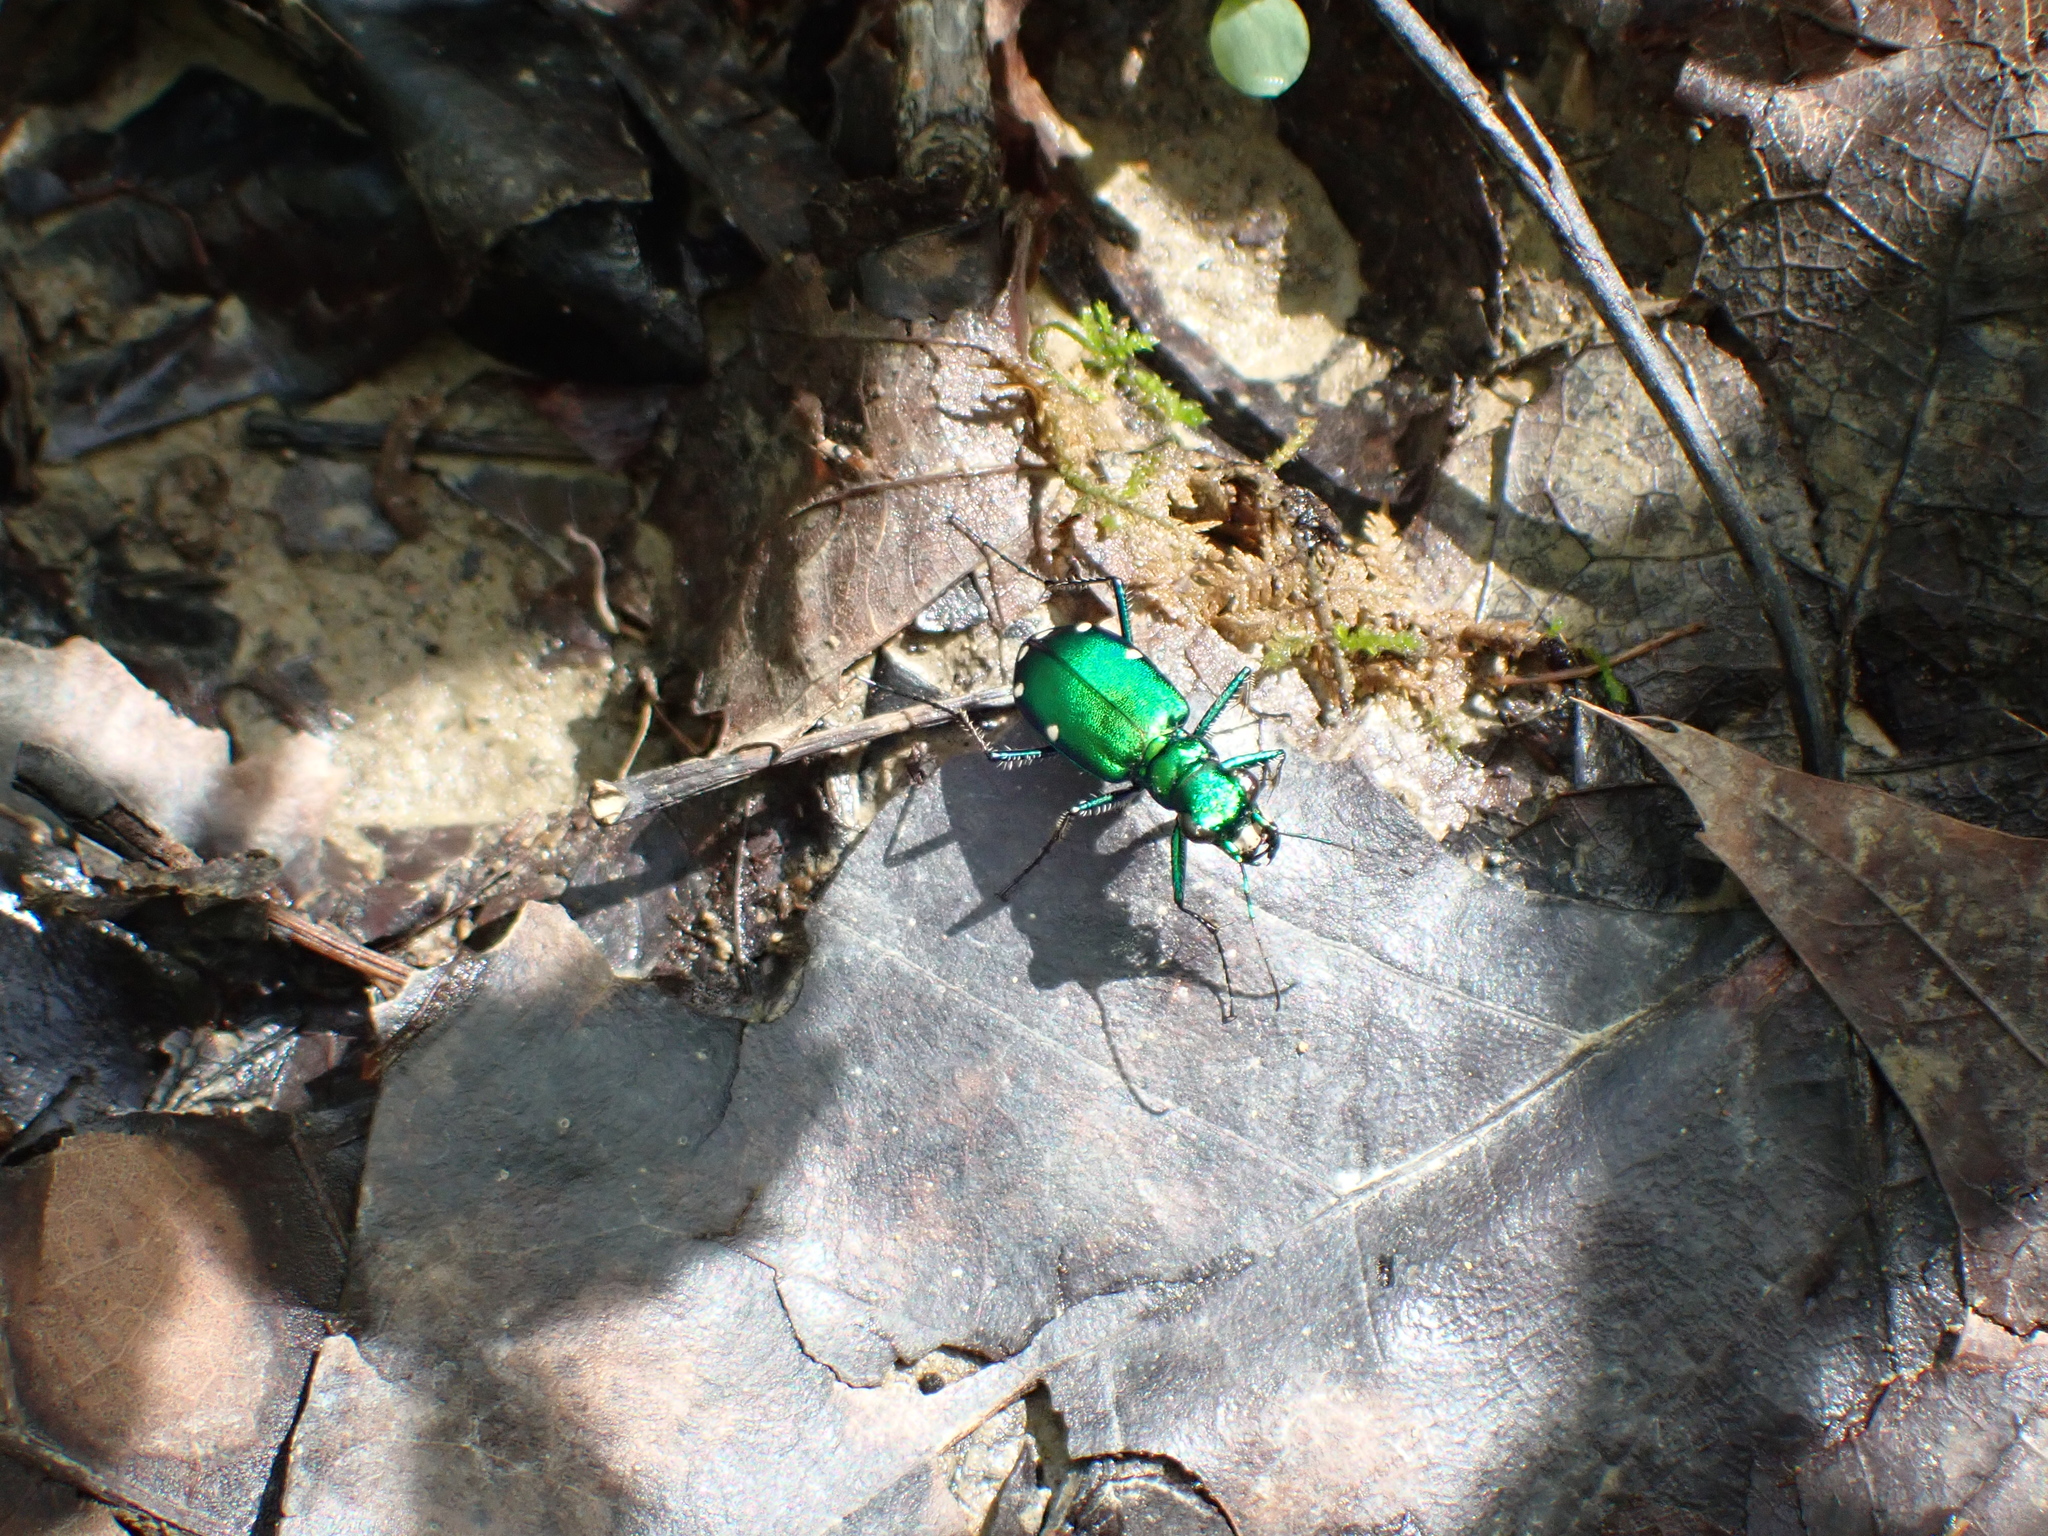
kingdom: Animalia
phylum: Arthropoda
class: Insecta
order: Coleoptera
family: Carabidae
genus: Cicindela
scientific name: Cicindela sexguttata
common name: Six-spotted tiger beetle
